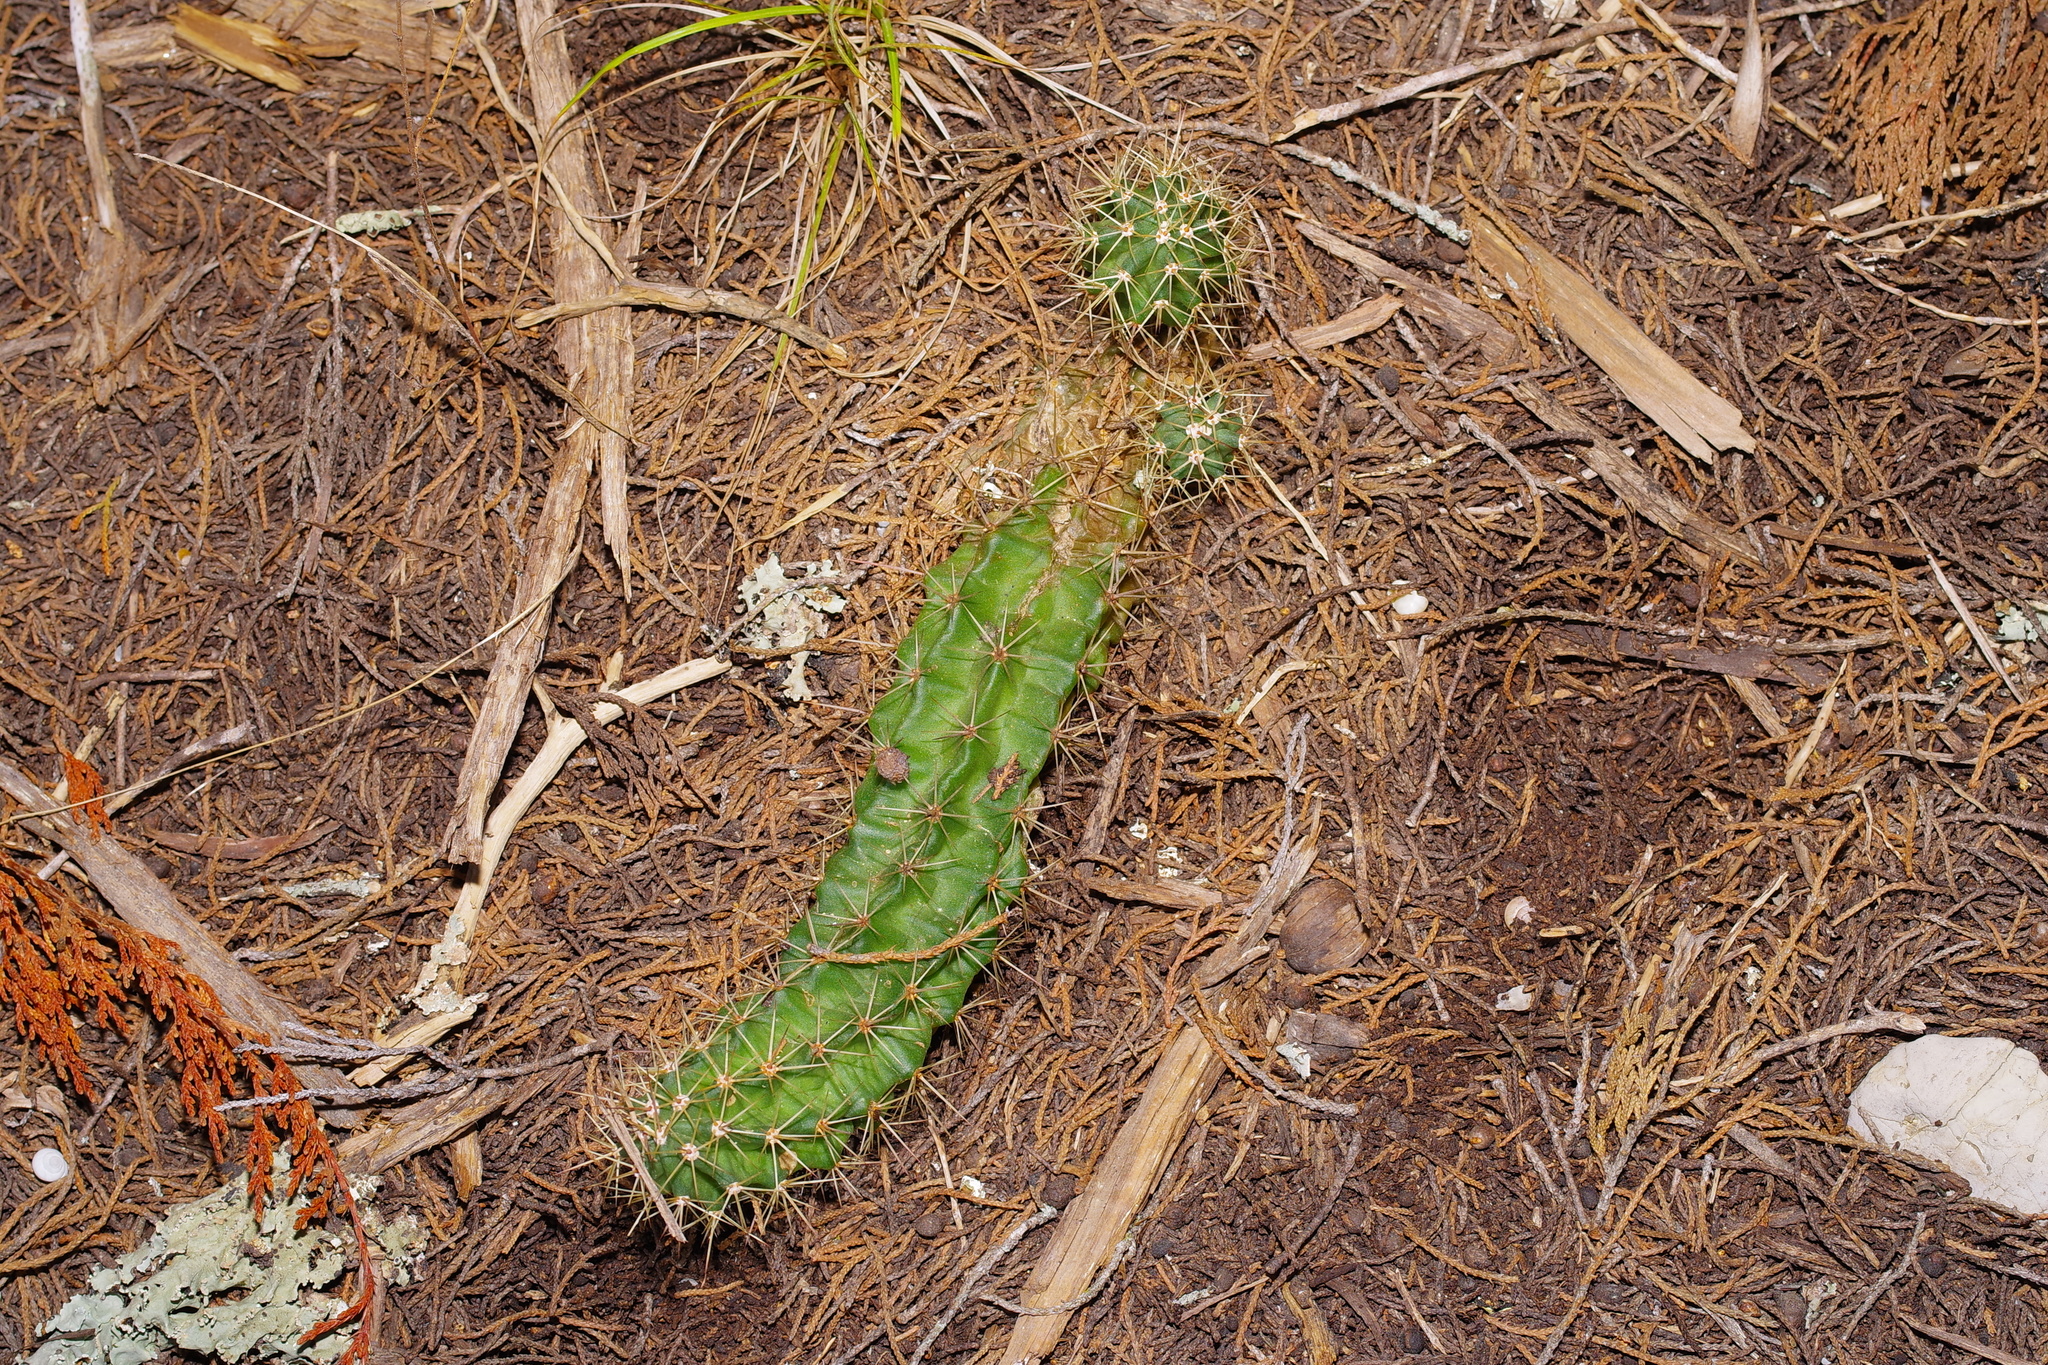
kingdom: Plantae
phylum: Tracheophyta
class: Magnoliopsida
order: Caryophyllales
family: Cactaceae
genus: Echinocereus
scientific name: Echinocereus coccineus
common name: Scarlet hedgehog cactus
